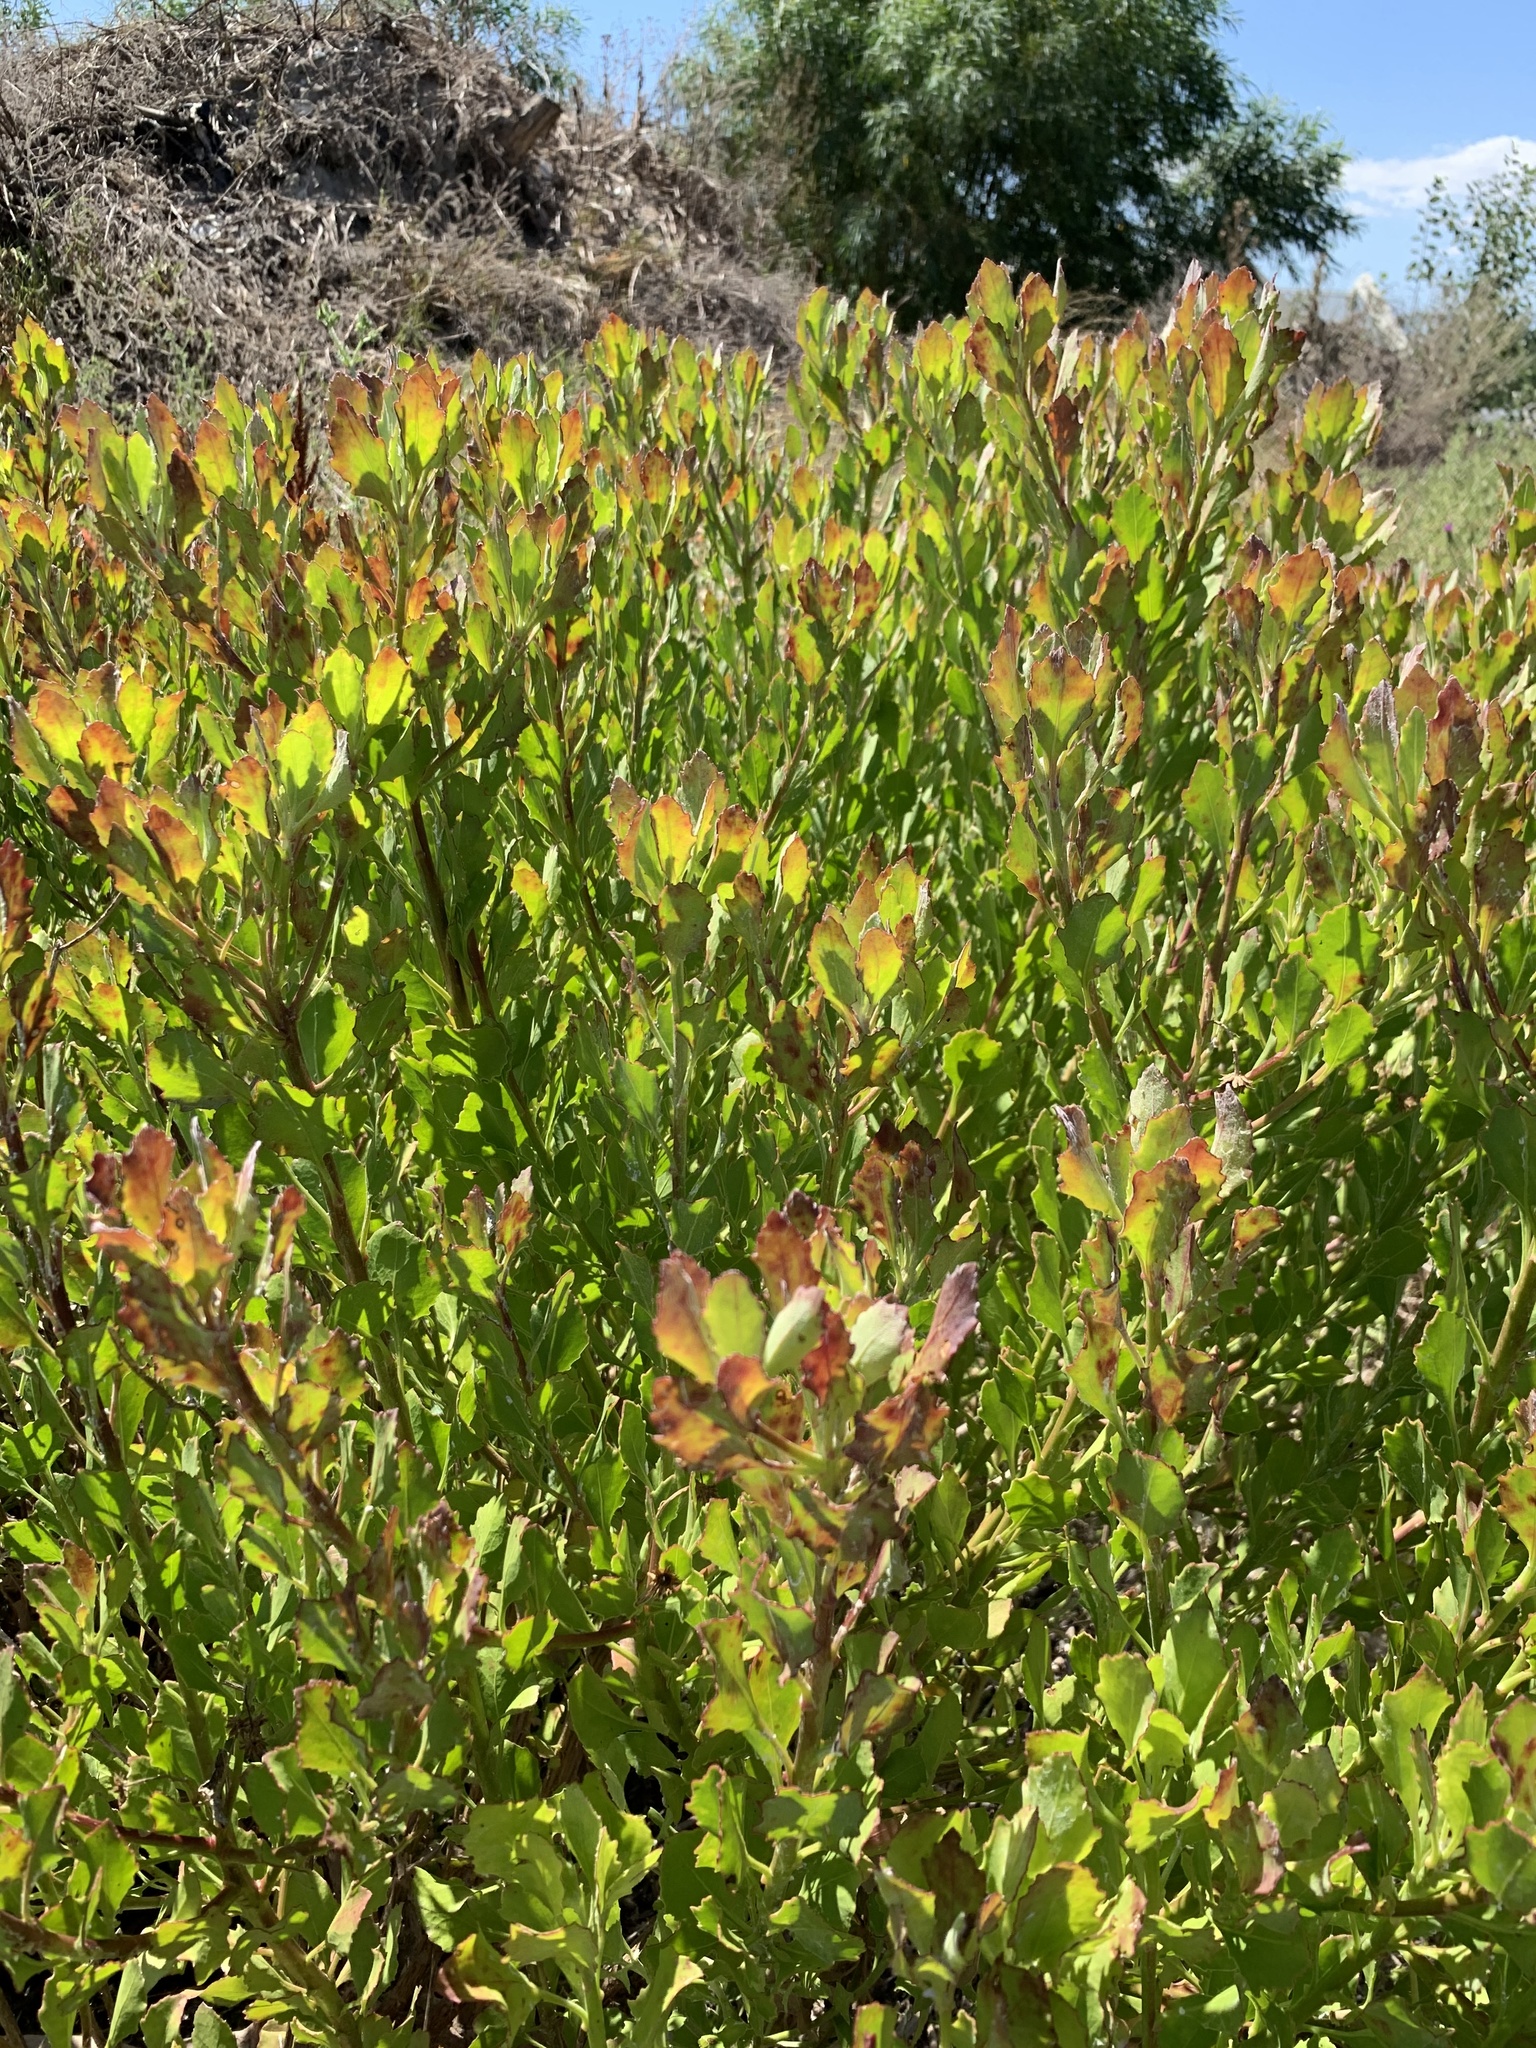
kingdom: Plantae
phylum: Tracheophyta
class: Magnoliopsida
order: Asterales
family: Asteraceae
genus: Osteospermum
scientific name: Osteospermum moniliferum
